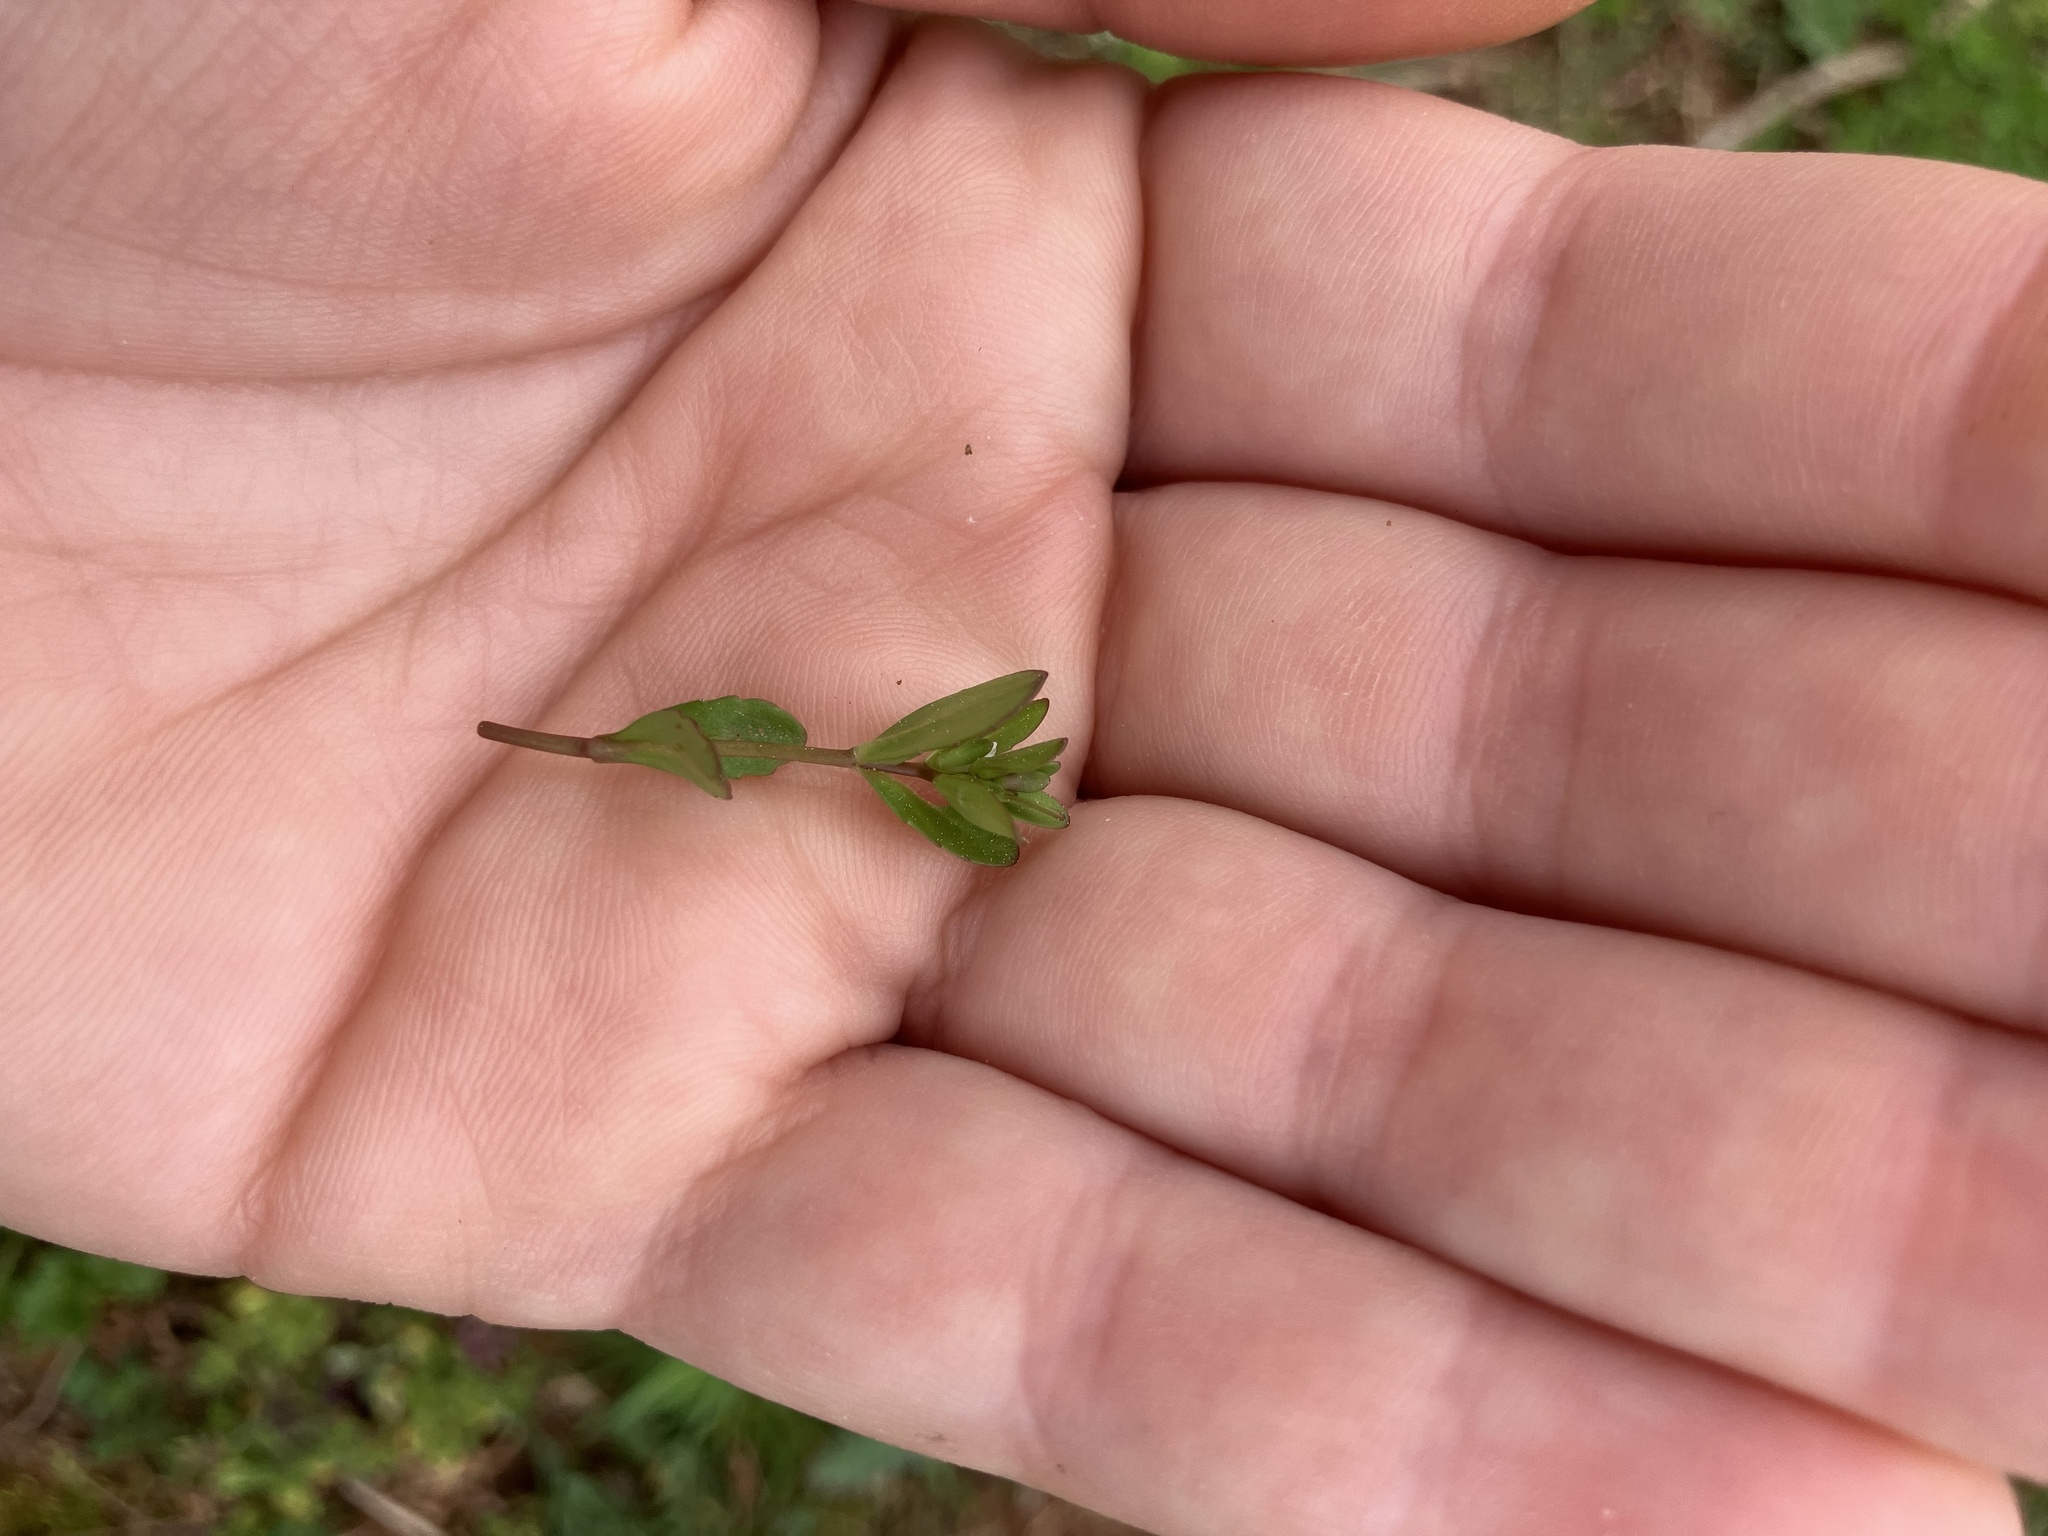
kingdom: Plantae
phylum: Tracheophyta
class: Magnoliopsida
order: Lamiales
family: Plantaginaceae
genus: Veronica
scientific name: Veronica peregrina
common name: Neckweed
